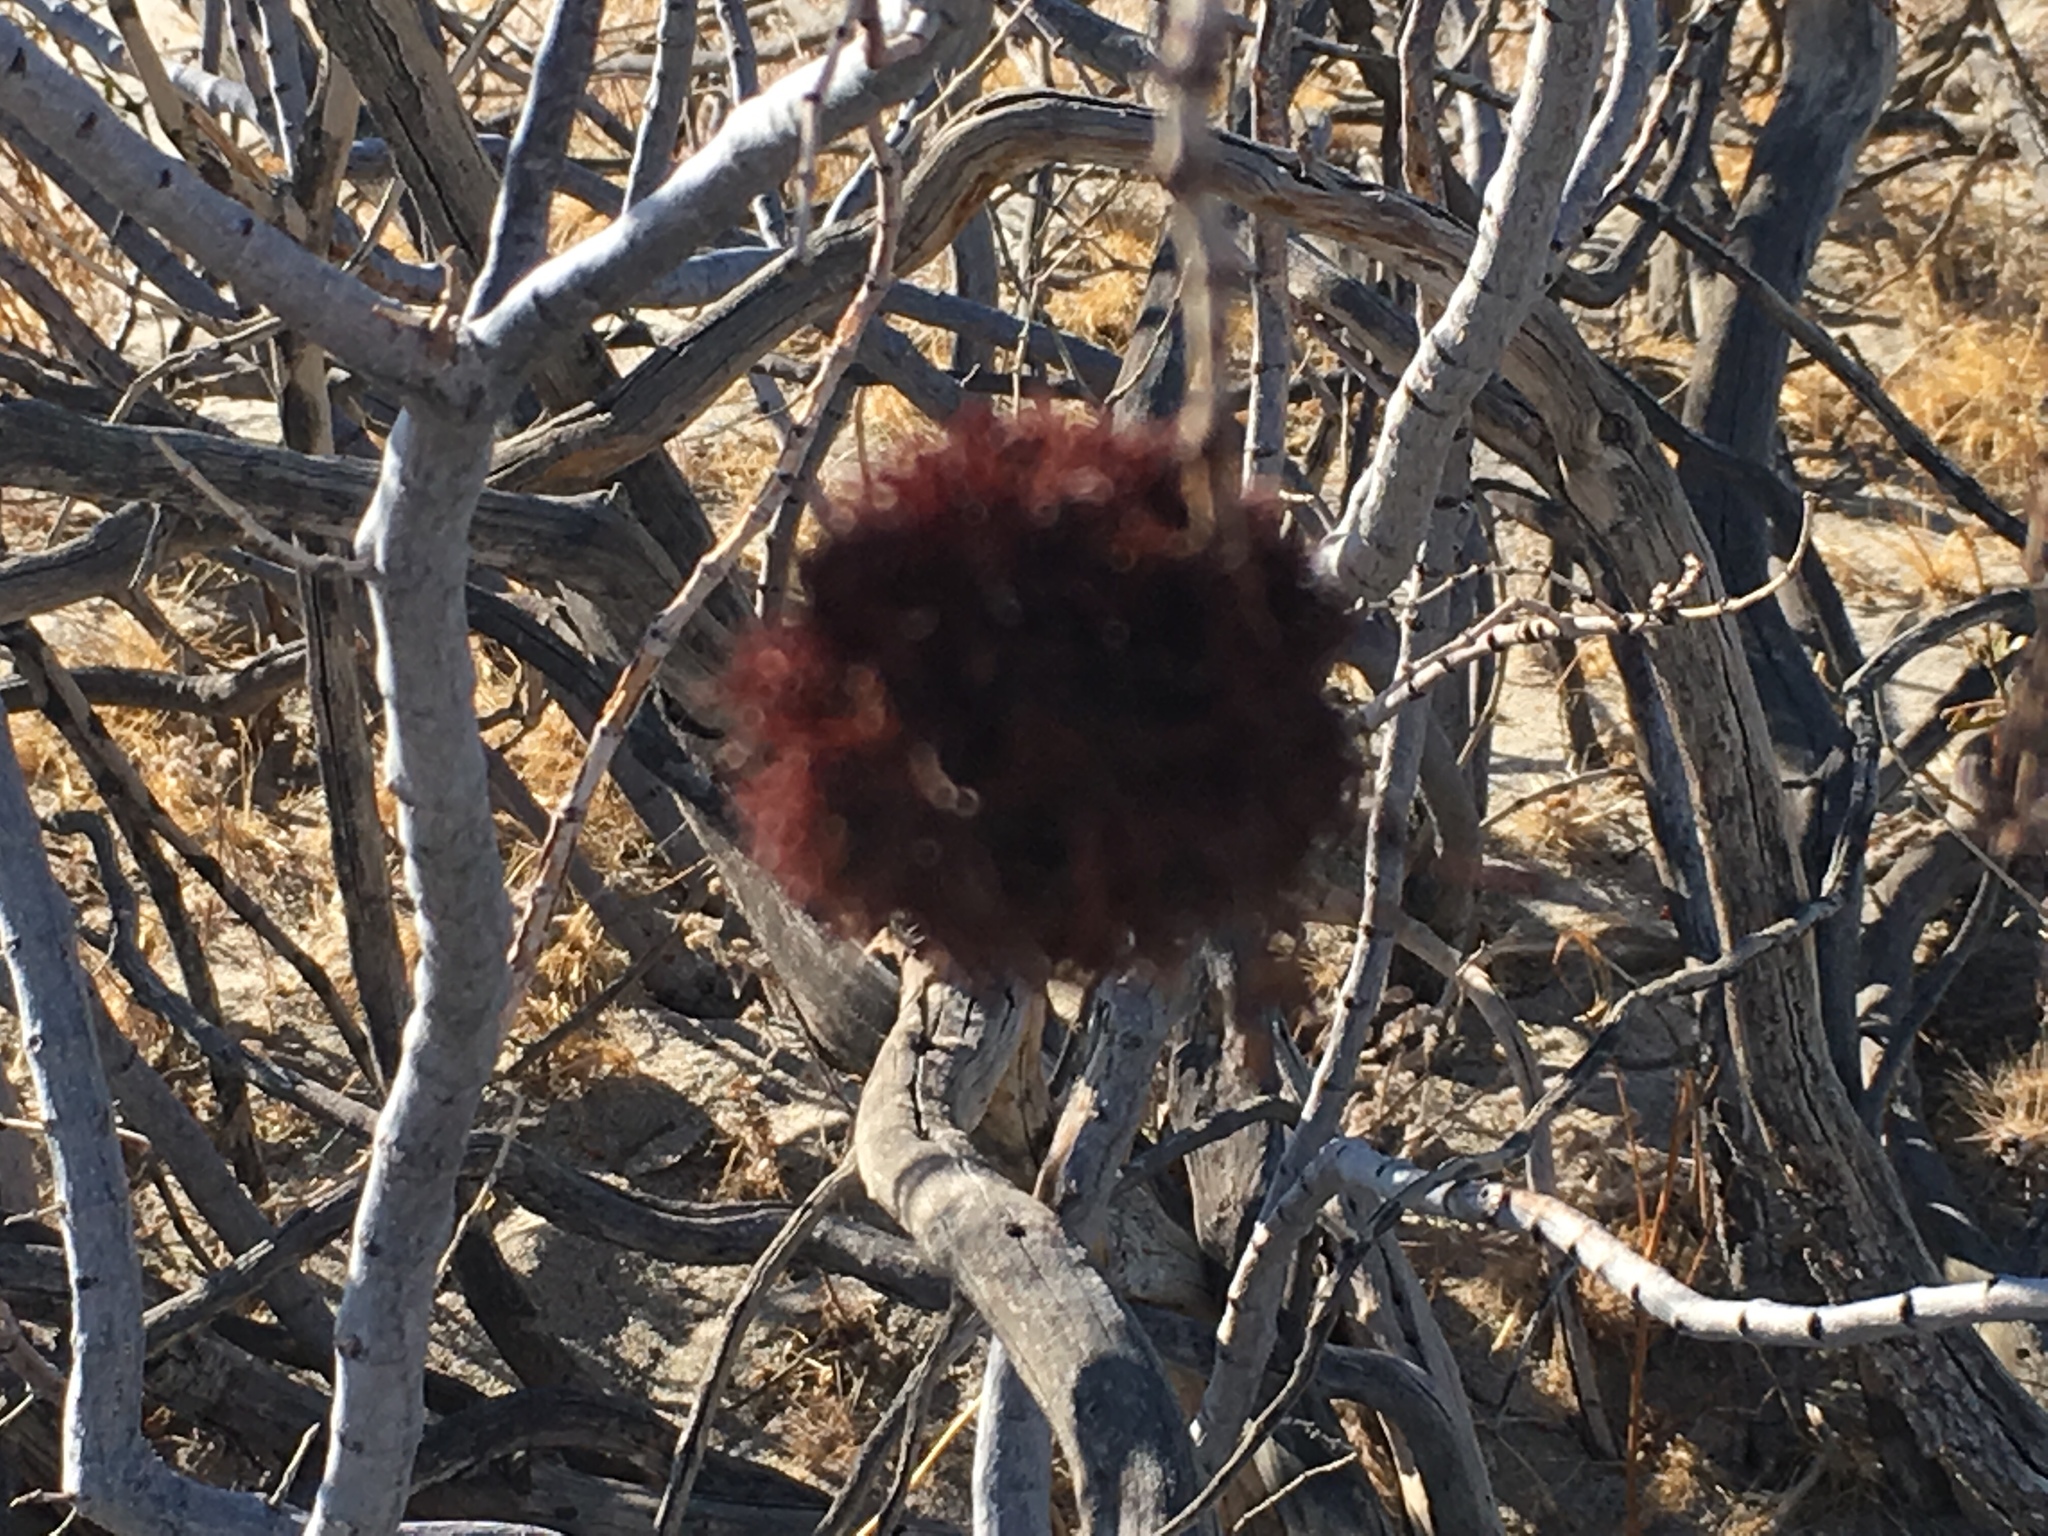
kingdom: Animalia
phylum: Arthropoda
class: Insecta
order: Diptera
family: Cecidomyiidae
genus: Asphondylia
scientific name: Asphondylia auripila
